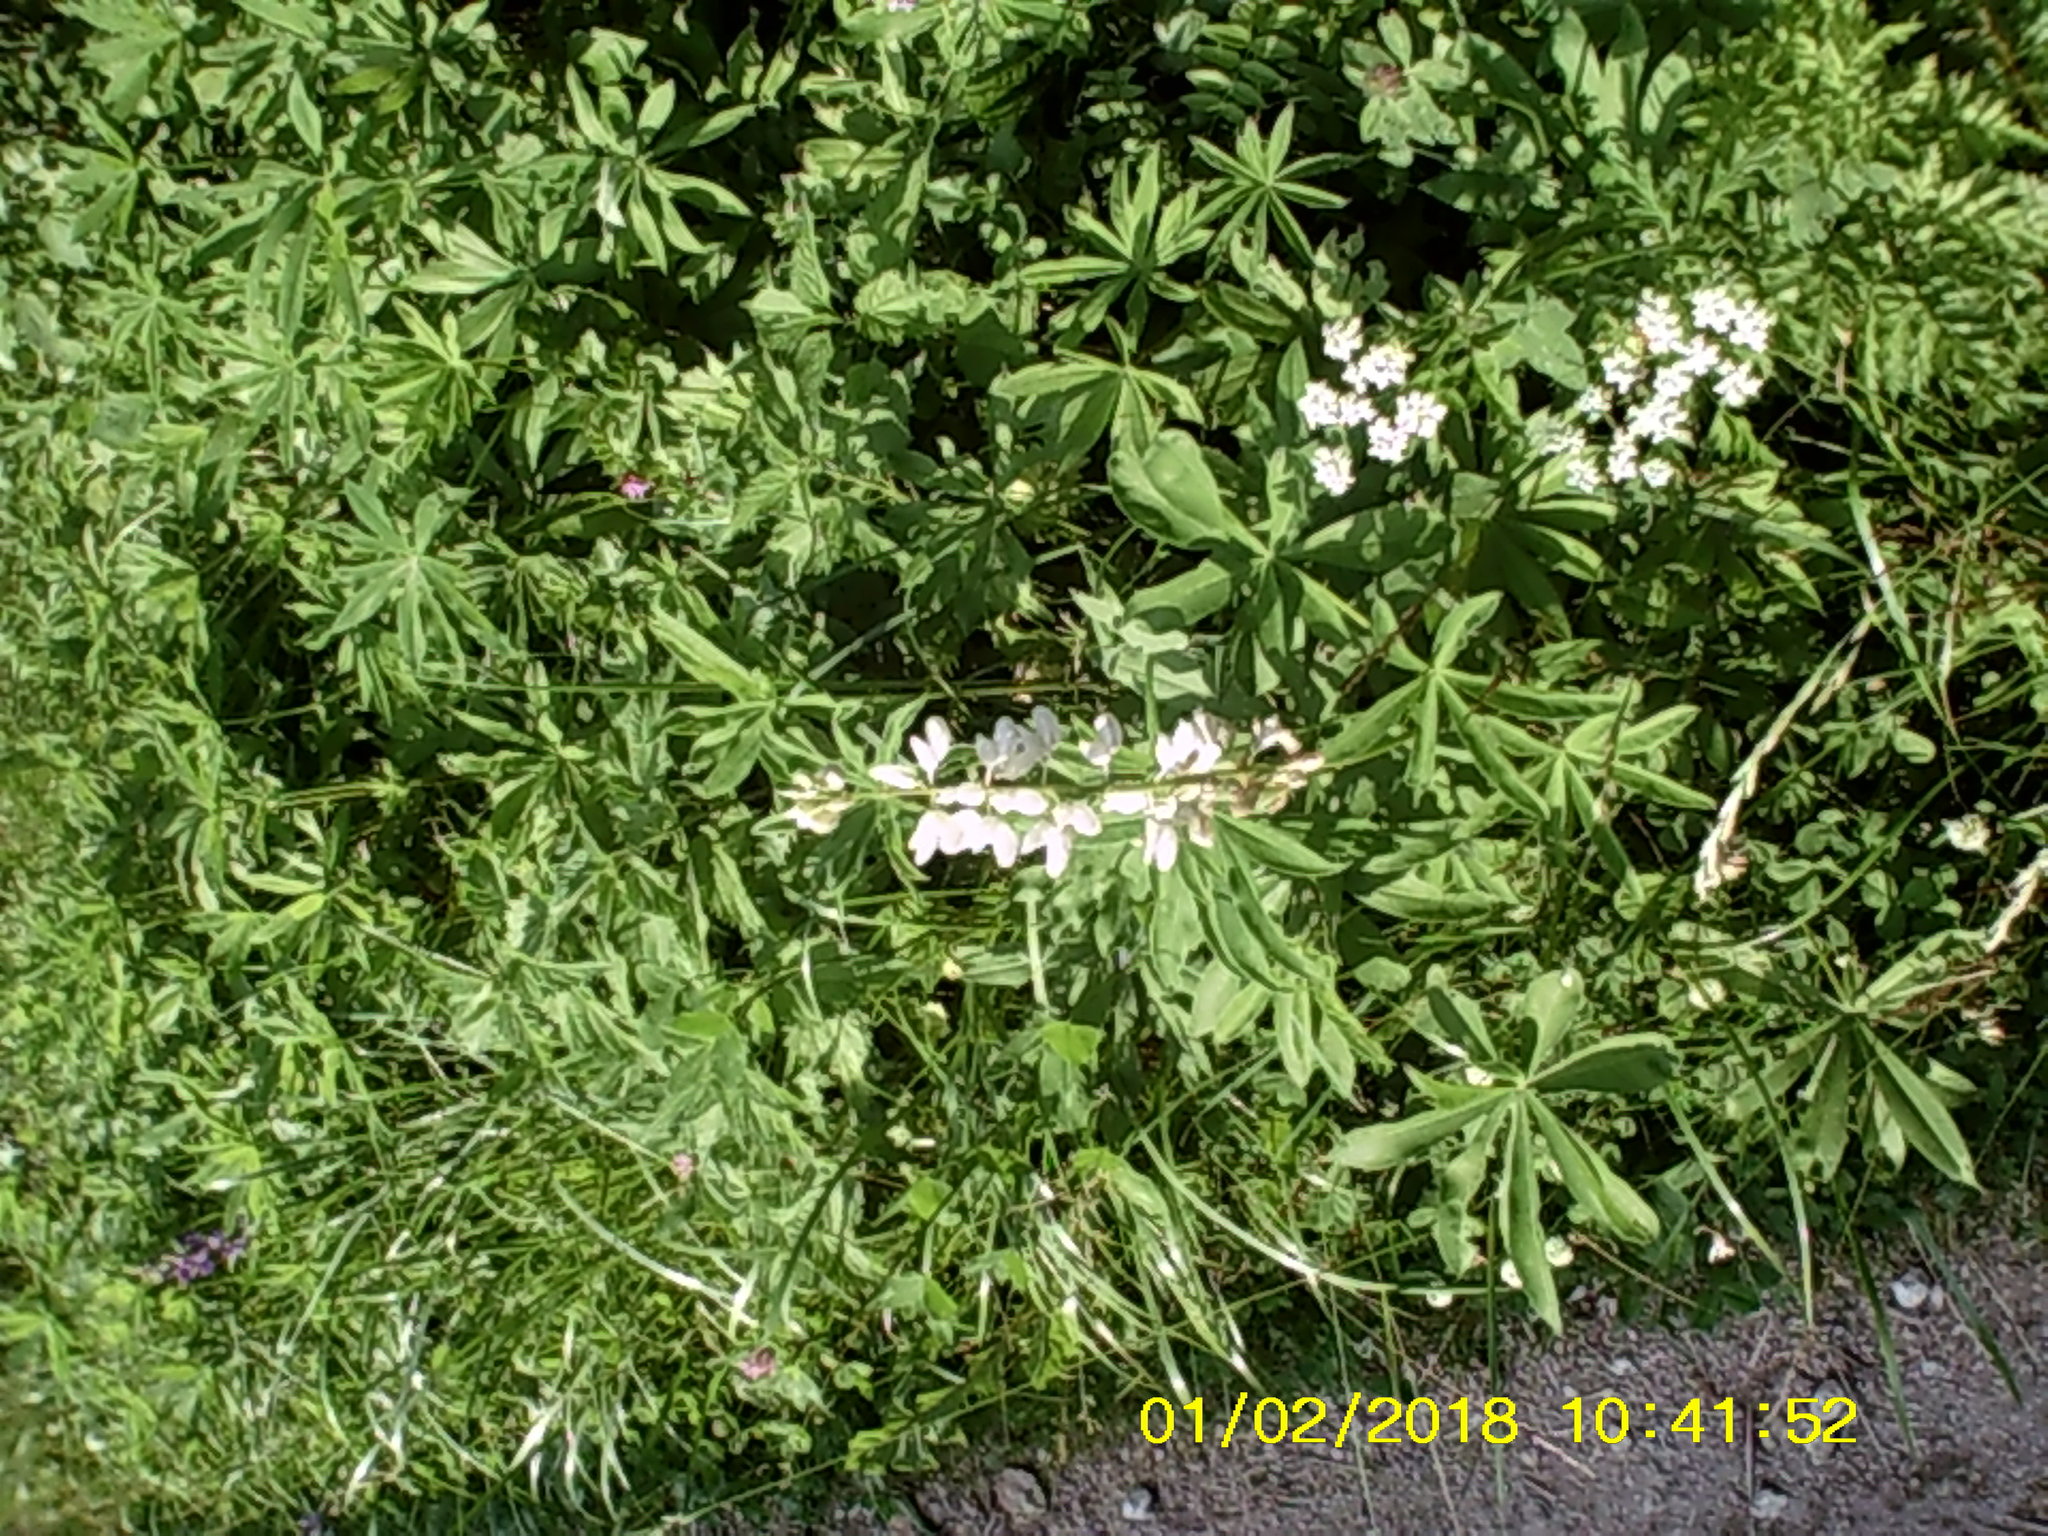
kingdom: Plantae
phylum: Tracheophyta
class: Magnoliopsida
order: Fabales
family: Fabaceae
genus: Lupinus
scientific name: Lupinus polyphyllus
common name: Garden lupin
